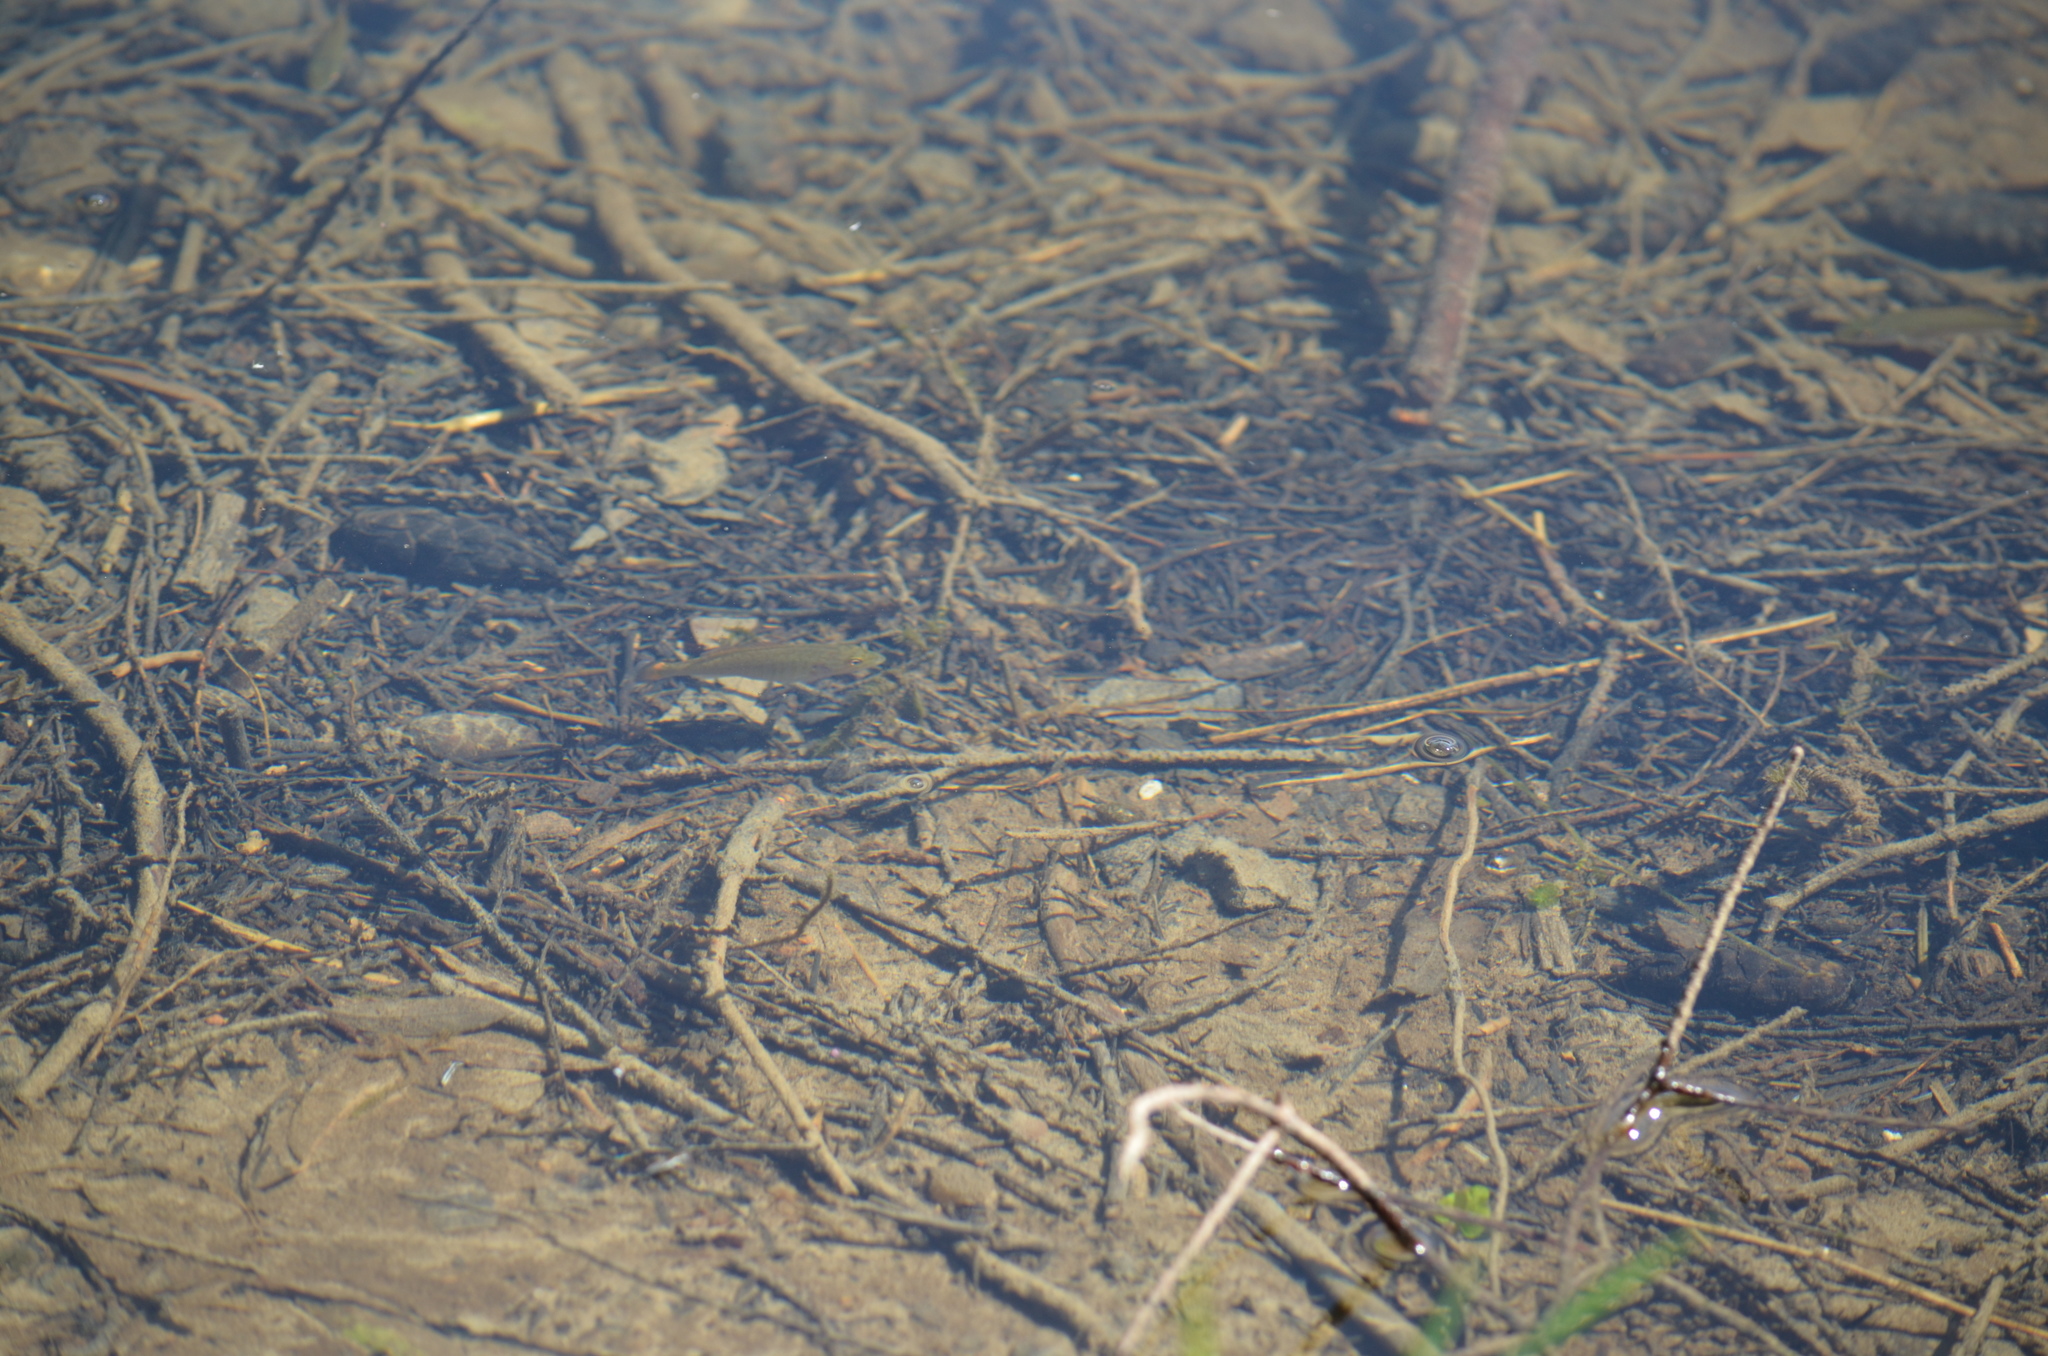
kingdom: Animalia
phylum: Chordata
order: Perciformes
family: Centrarchidae
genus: Micropterus
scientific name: Micropterus dolomieu
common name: Smallmouth bass
